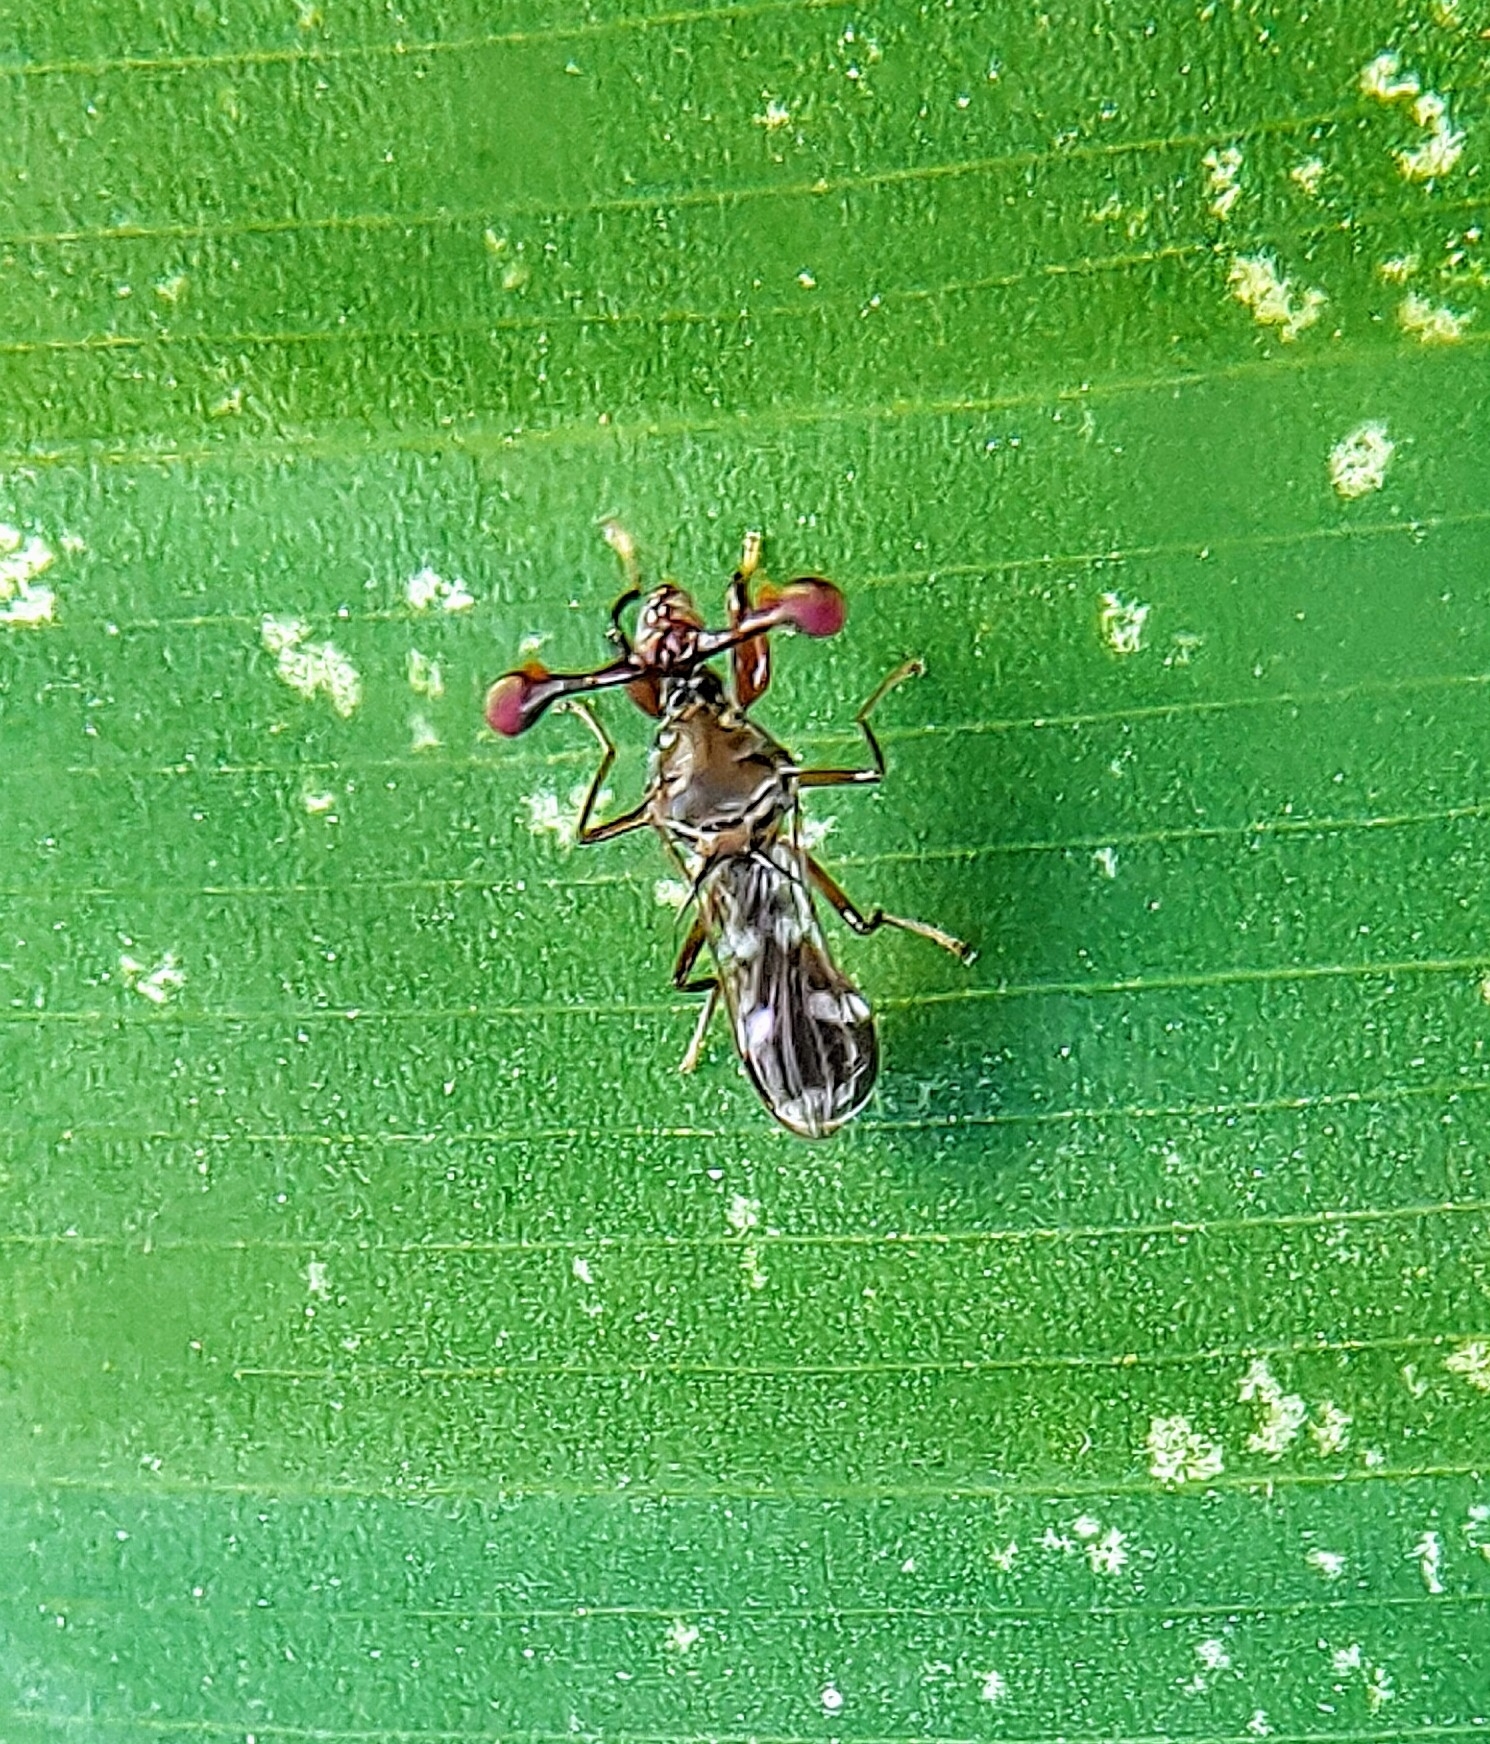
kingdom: Animalia
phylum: Arthropoda
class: Insecta
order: Diptera
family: Diopsidae
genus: Megalabops
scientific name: Megalabops
